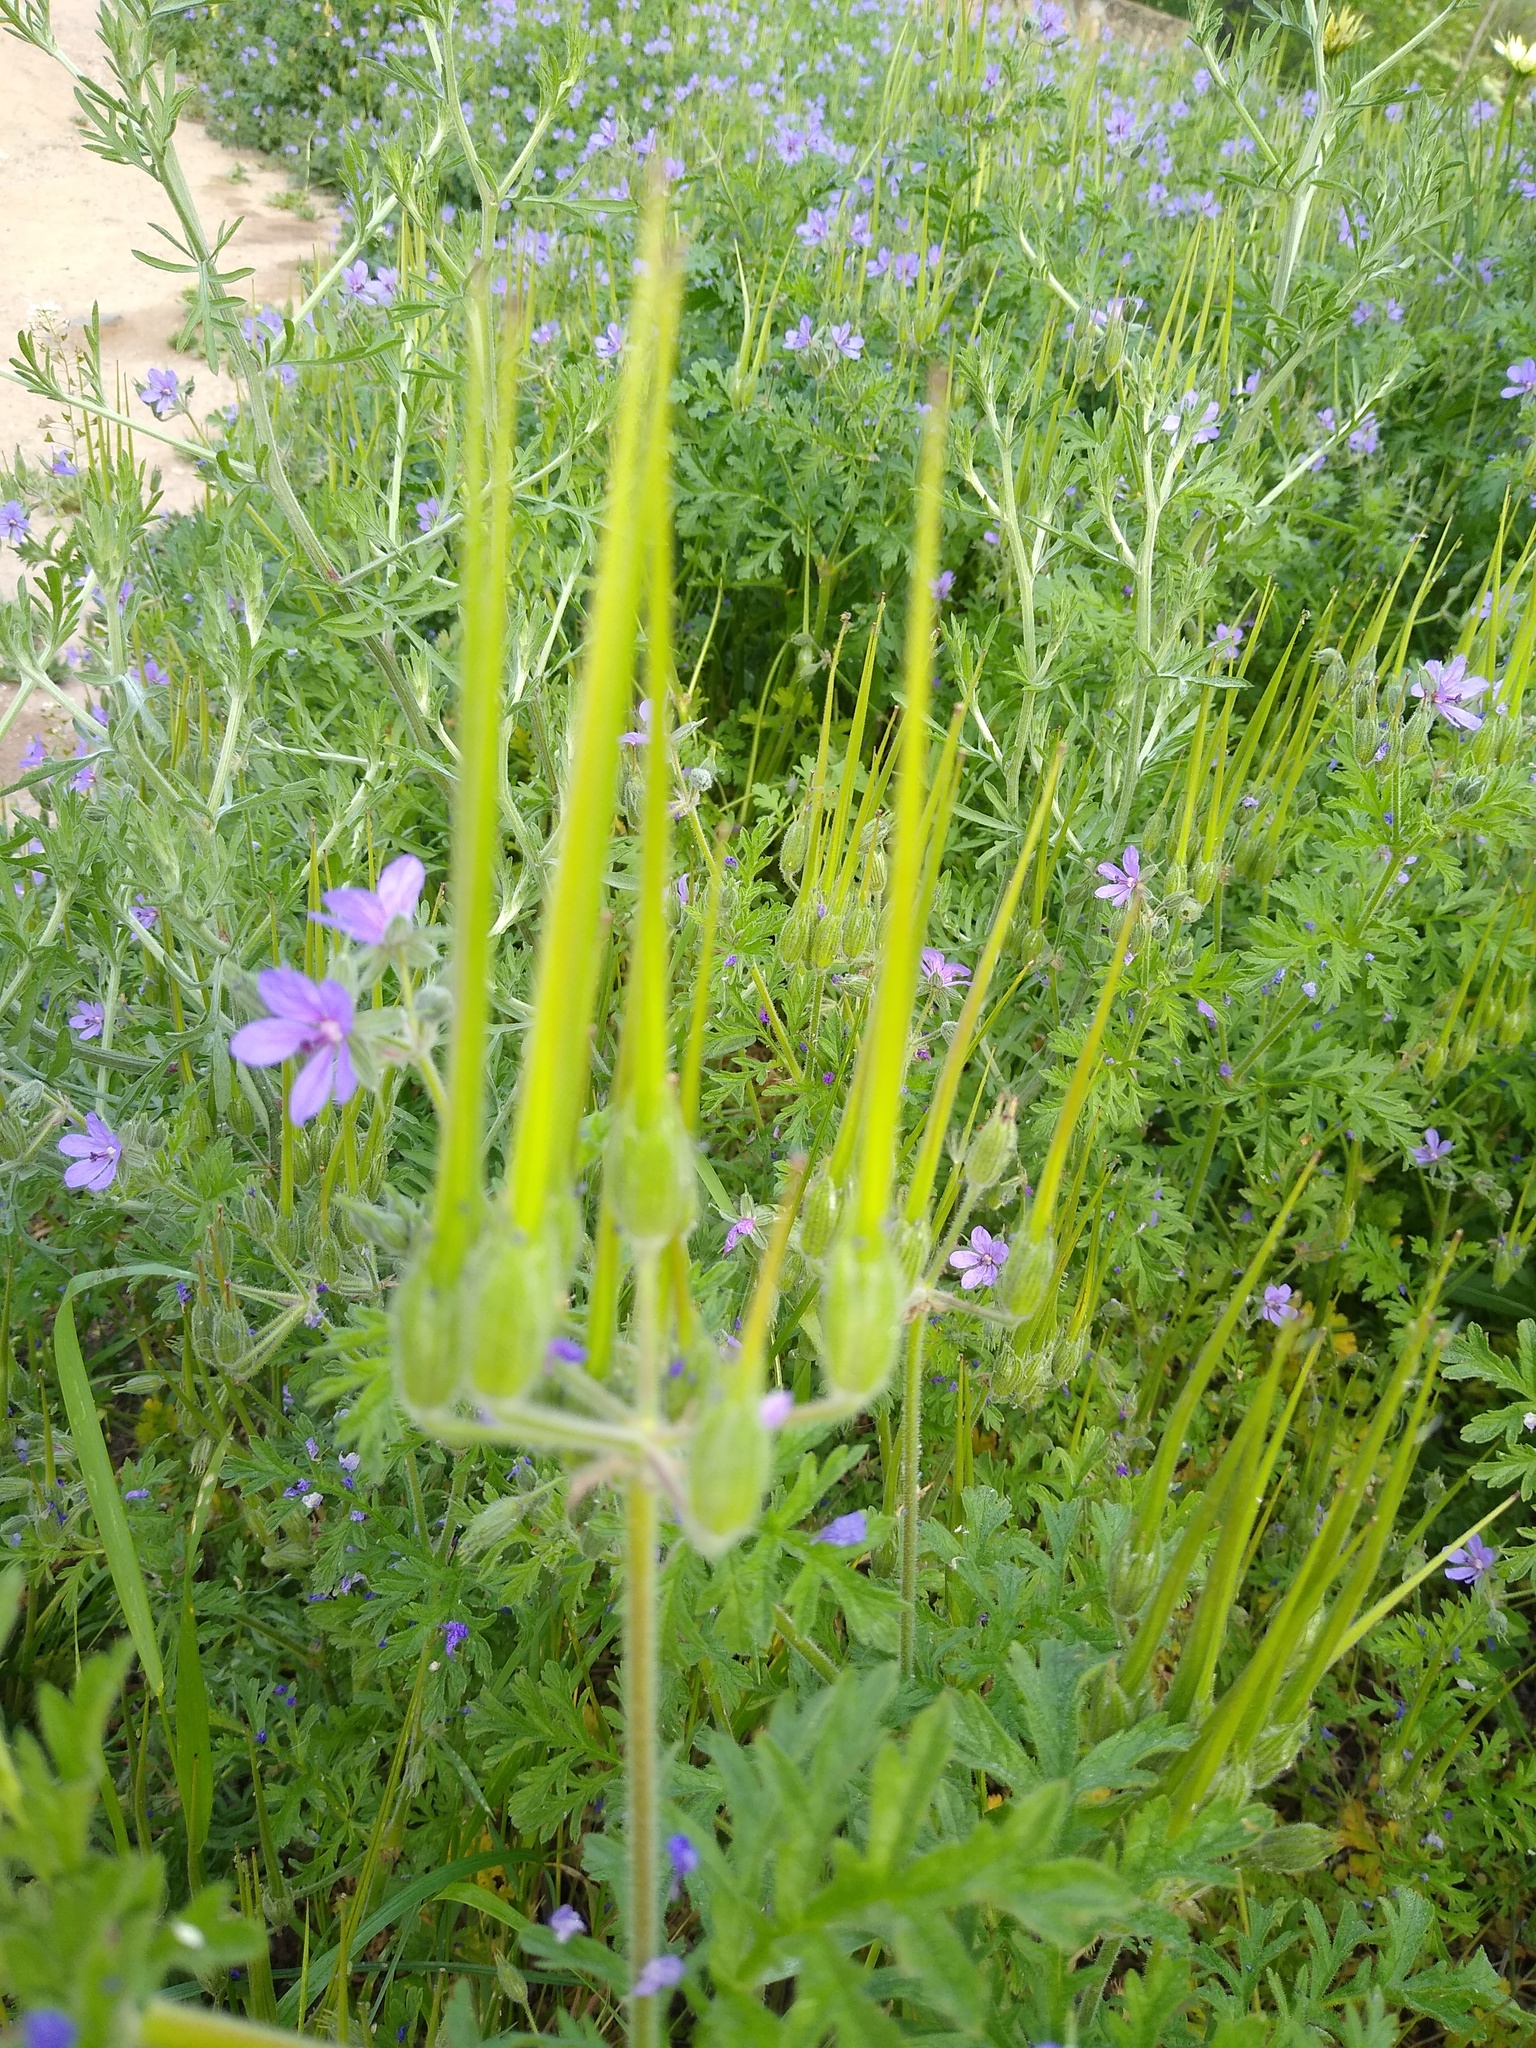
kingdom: Plantae
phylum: Tracheophyta
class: Magnoliopsida
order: Geraniales
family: Geraniaceae
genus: Erodium
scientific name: Erodium ciconium
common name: Common stork's bill
